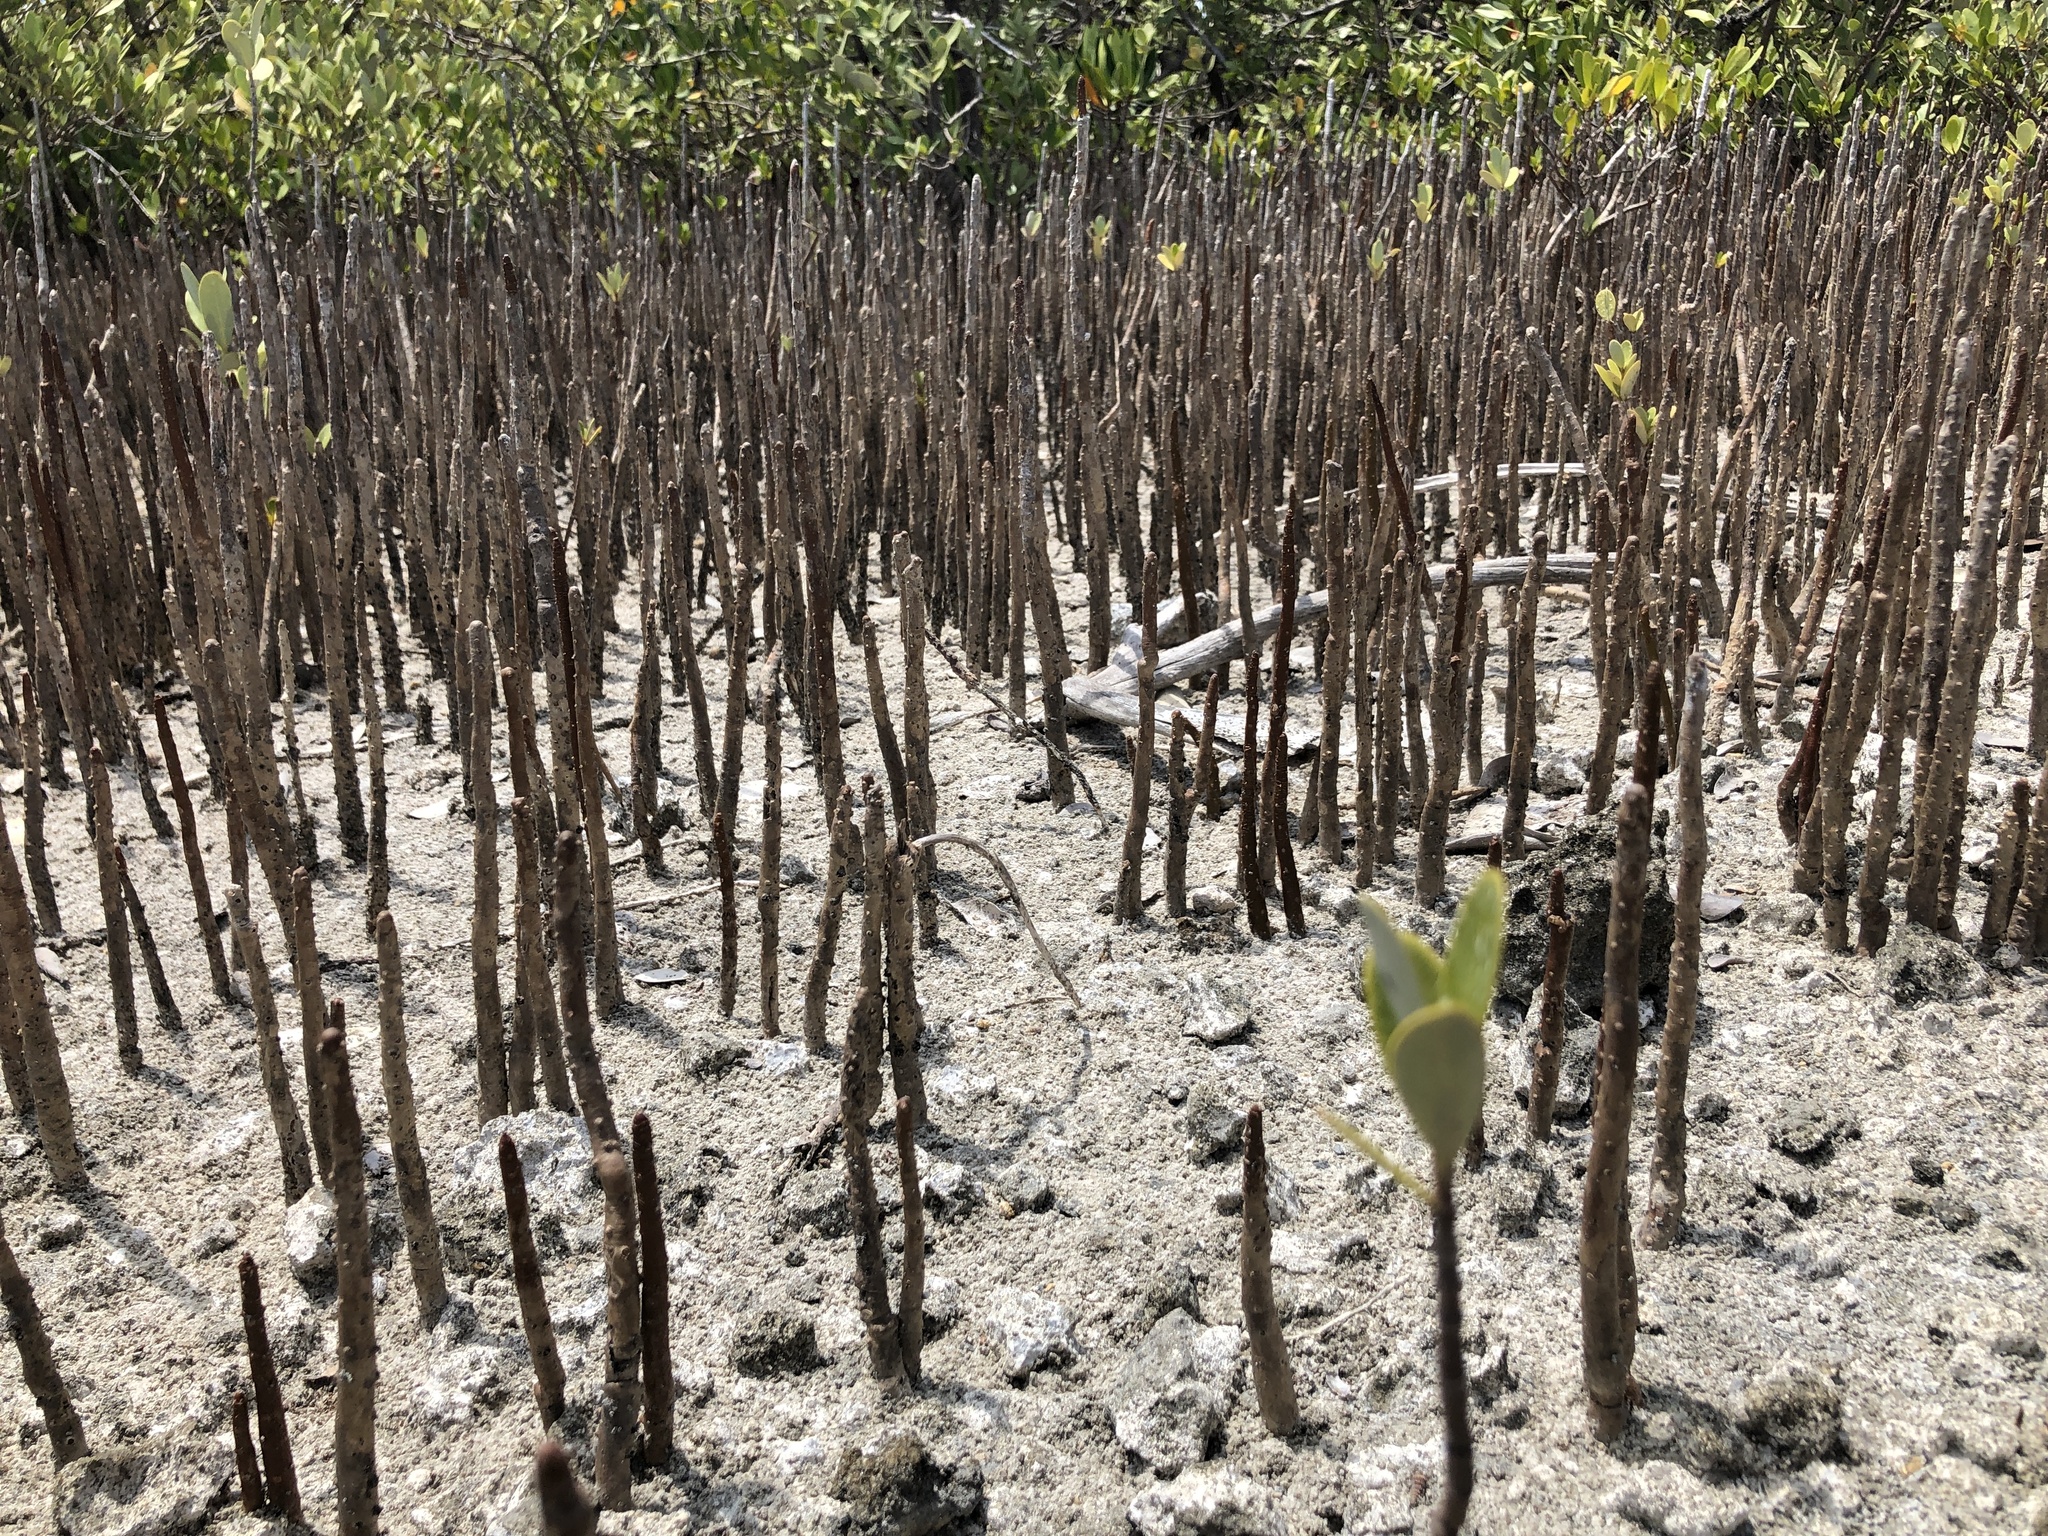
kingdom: Plantae
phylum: Tracheophyta
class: Magnoliopsida
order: Lamiales
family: Acanthaceae
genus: Avicennia
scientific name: Avicennia germinans
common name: Black mangrove
